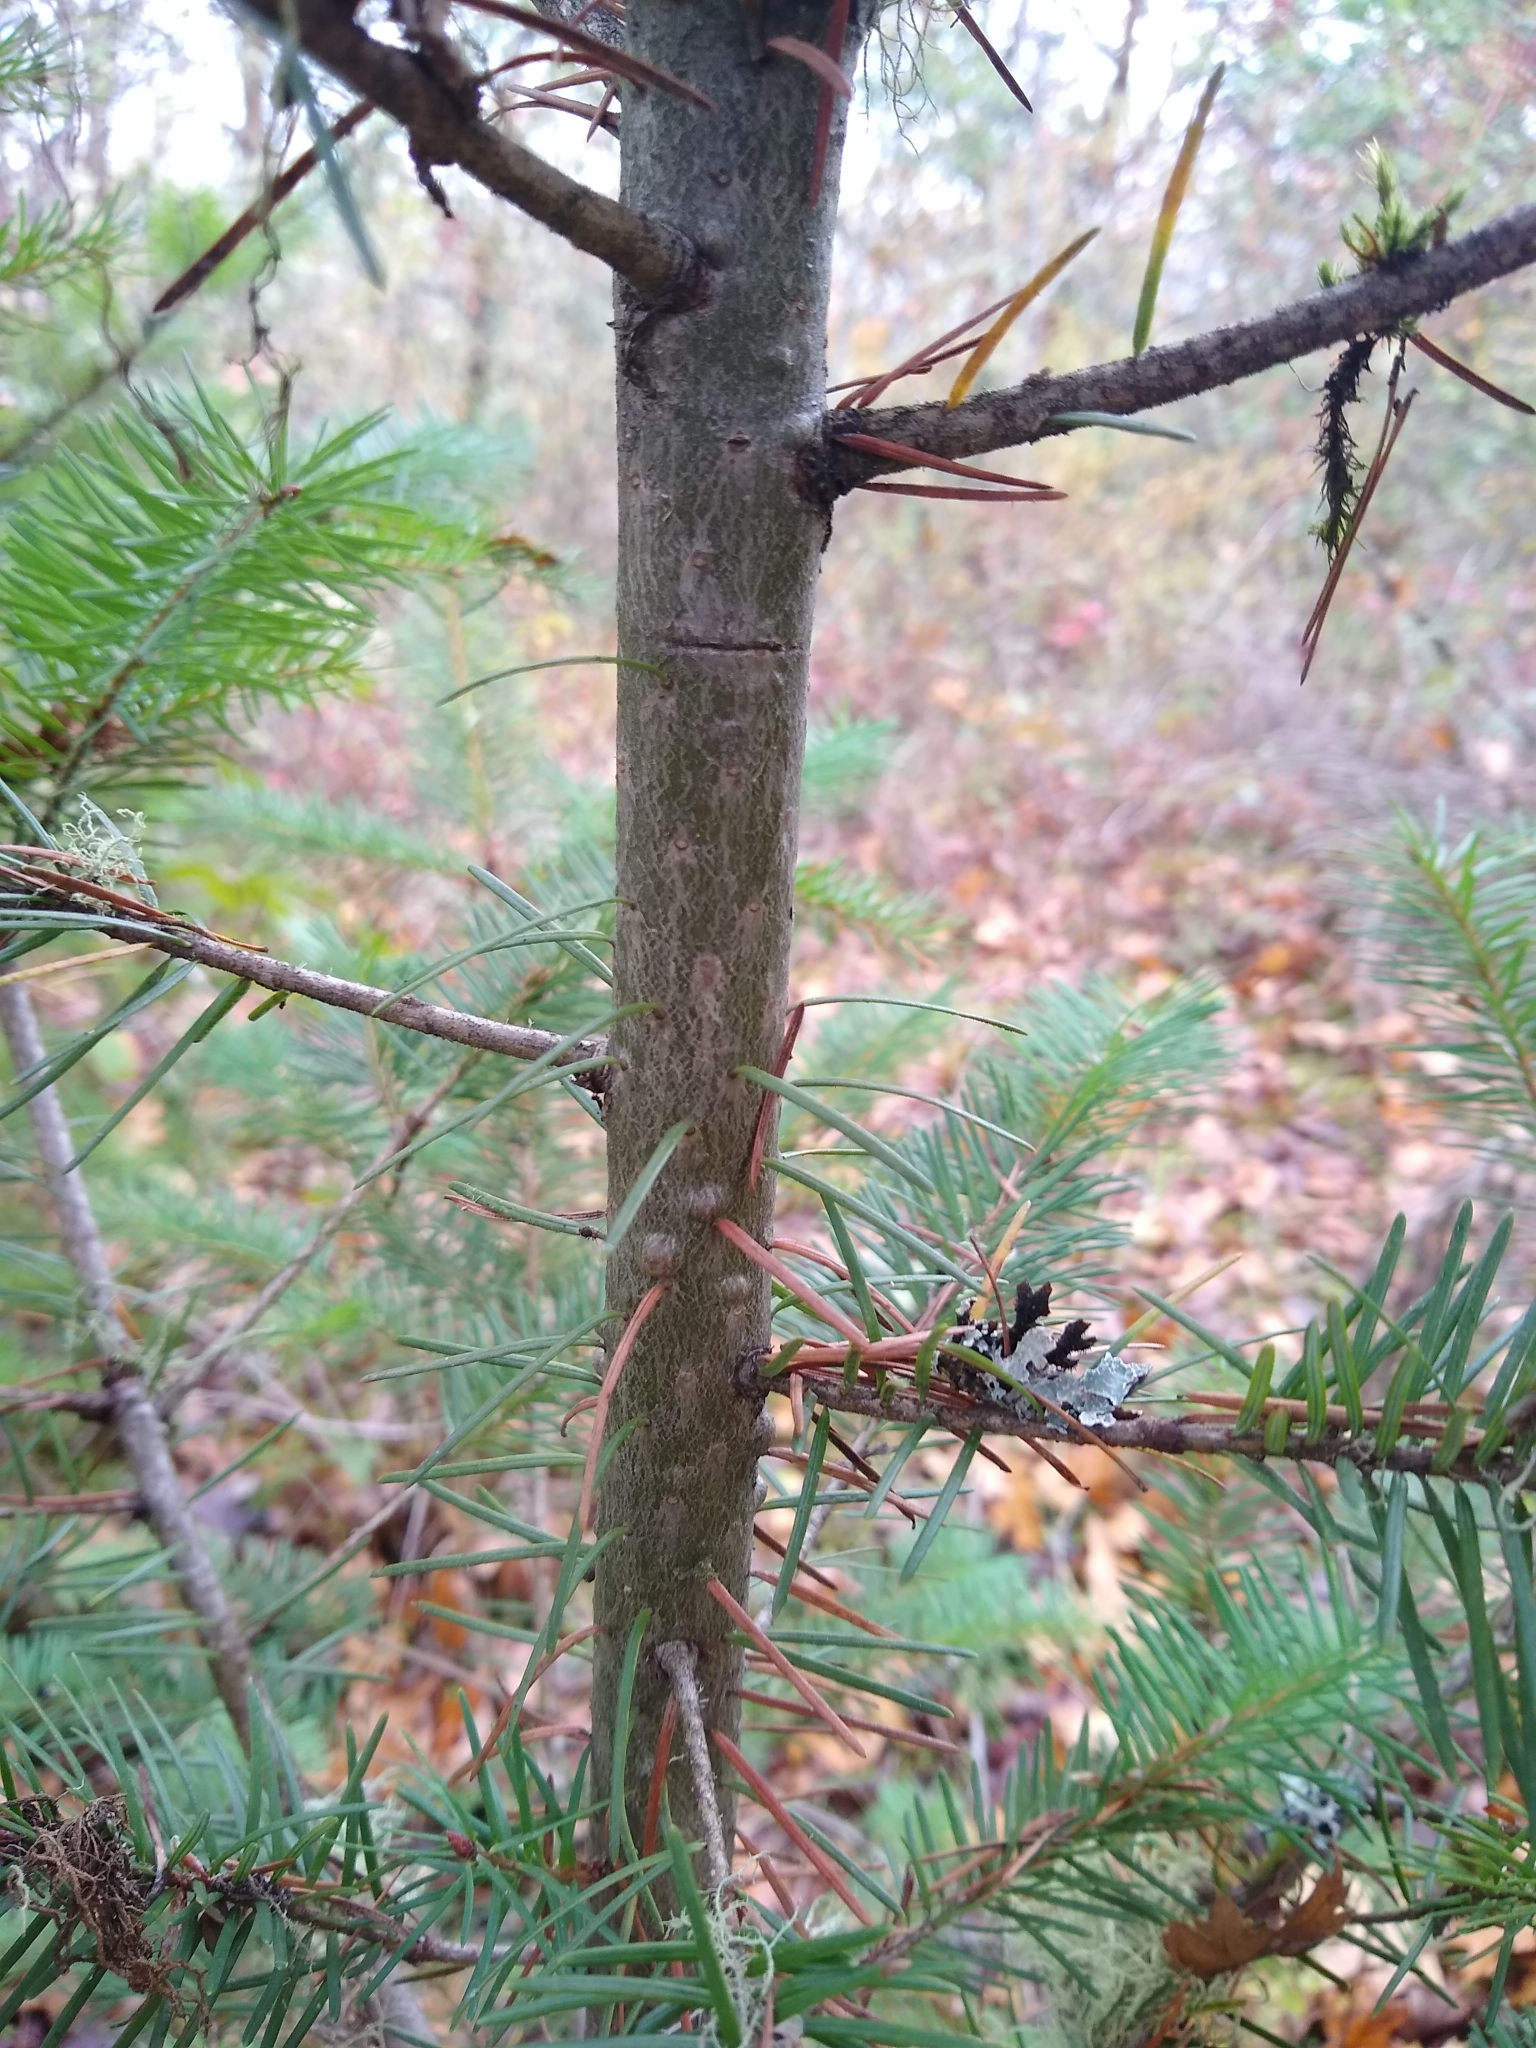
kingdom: Plantae
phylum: Tracheophyta
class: Pinopsida
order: Pinales
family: Pinaceae
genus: Pseudotsuga
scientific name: Pseudotsuga menziesii
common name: Douglas fir
